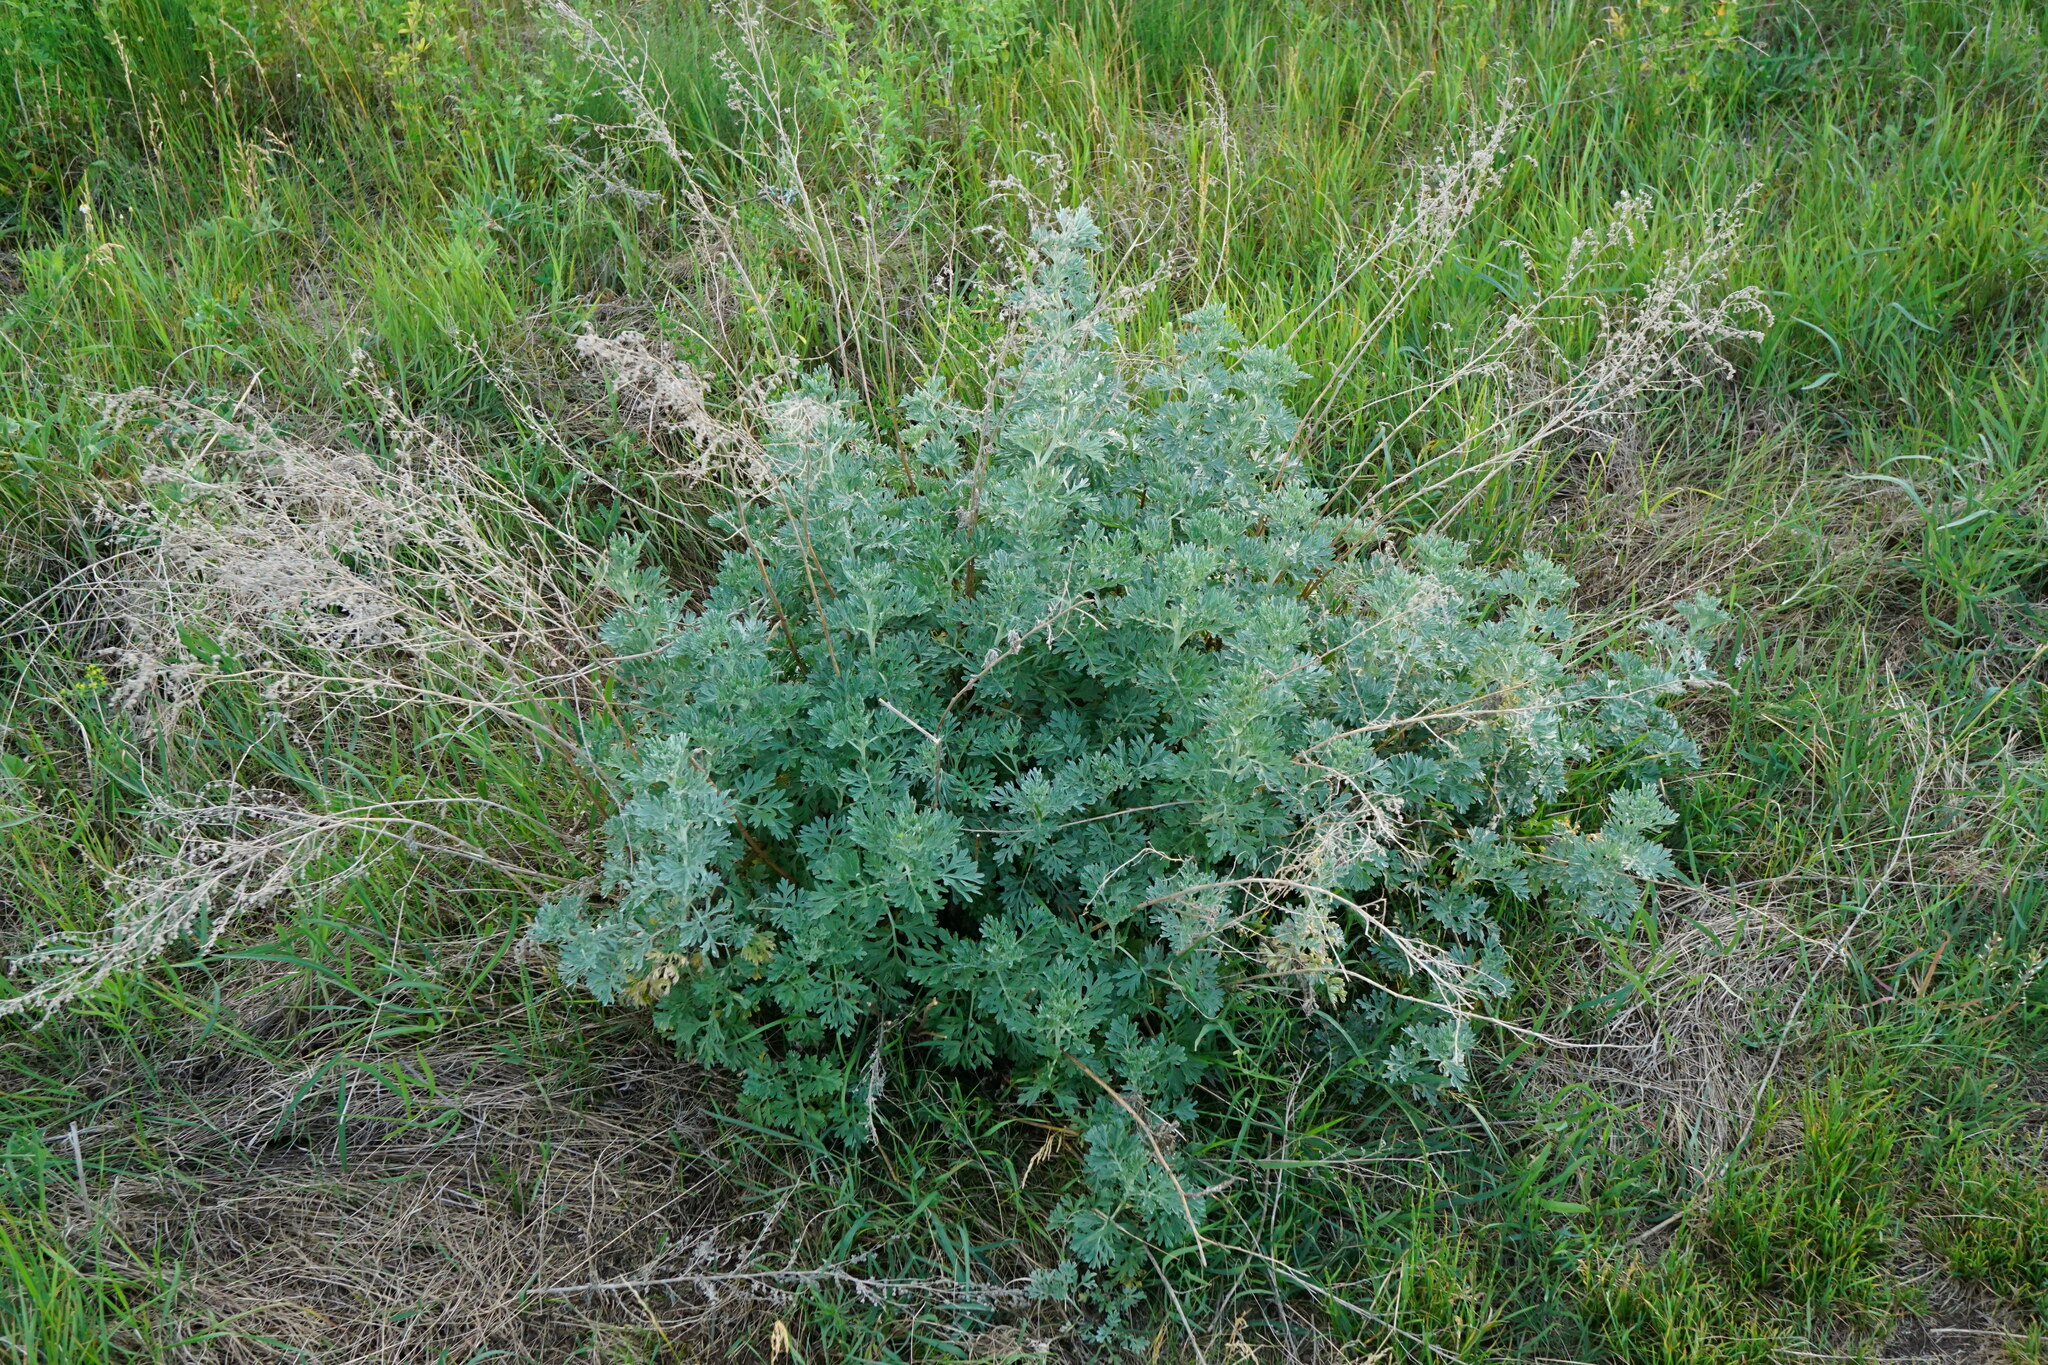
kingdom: Plantae
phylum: Tracheophyta
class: Magnoliopsida
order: Asterales
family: Asteraceae
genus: Artemisia
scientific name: Artemisia absinthium
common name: Wormwood
